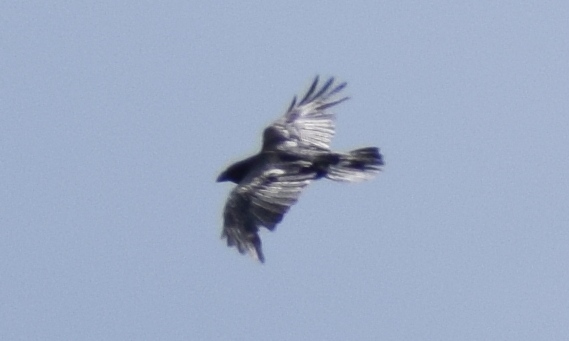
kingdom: Animalia
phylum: Chordata
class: Aves
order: Passeriformes
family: Corvidae
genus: Corvus
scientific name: Corvus corone
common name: Carrion crow
